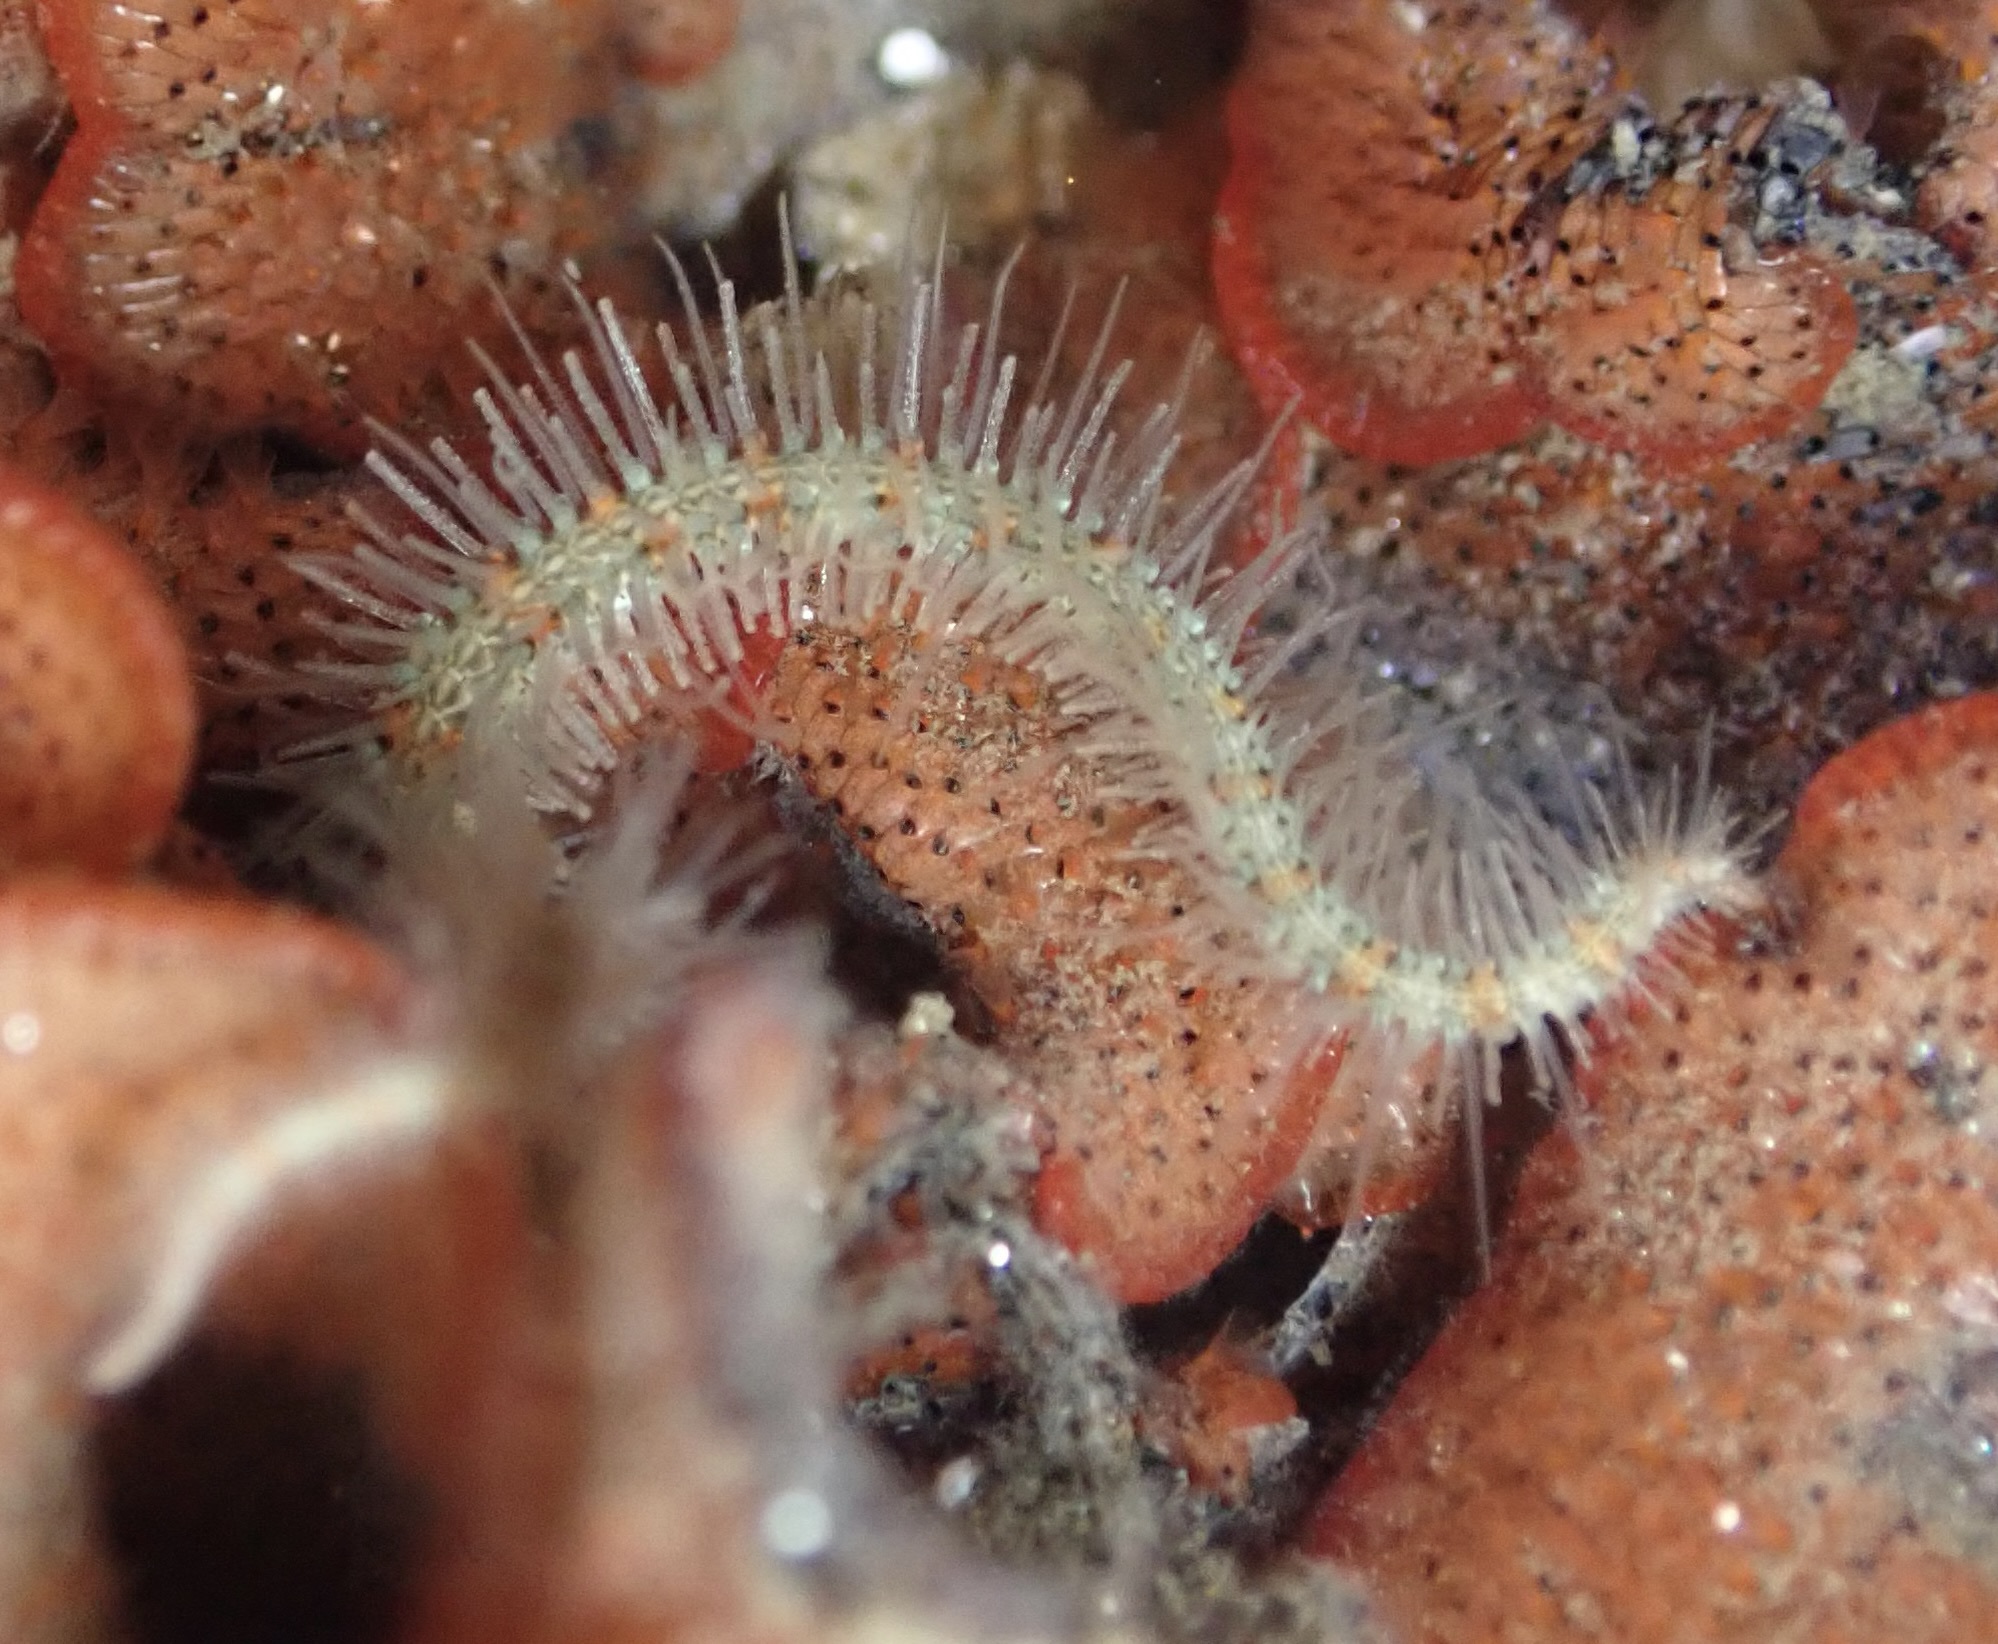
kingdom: Animalia
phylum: Echinodermata
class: Ophiuroidea
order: Amphilepidida
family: Ophiotrichidae
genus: Ophiothrix
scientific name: Ophiothrix spiculata
